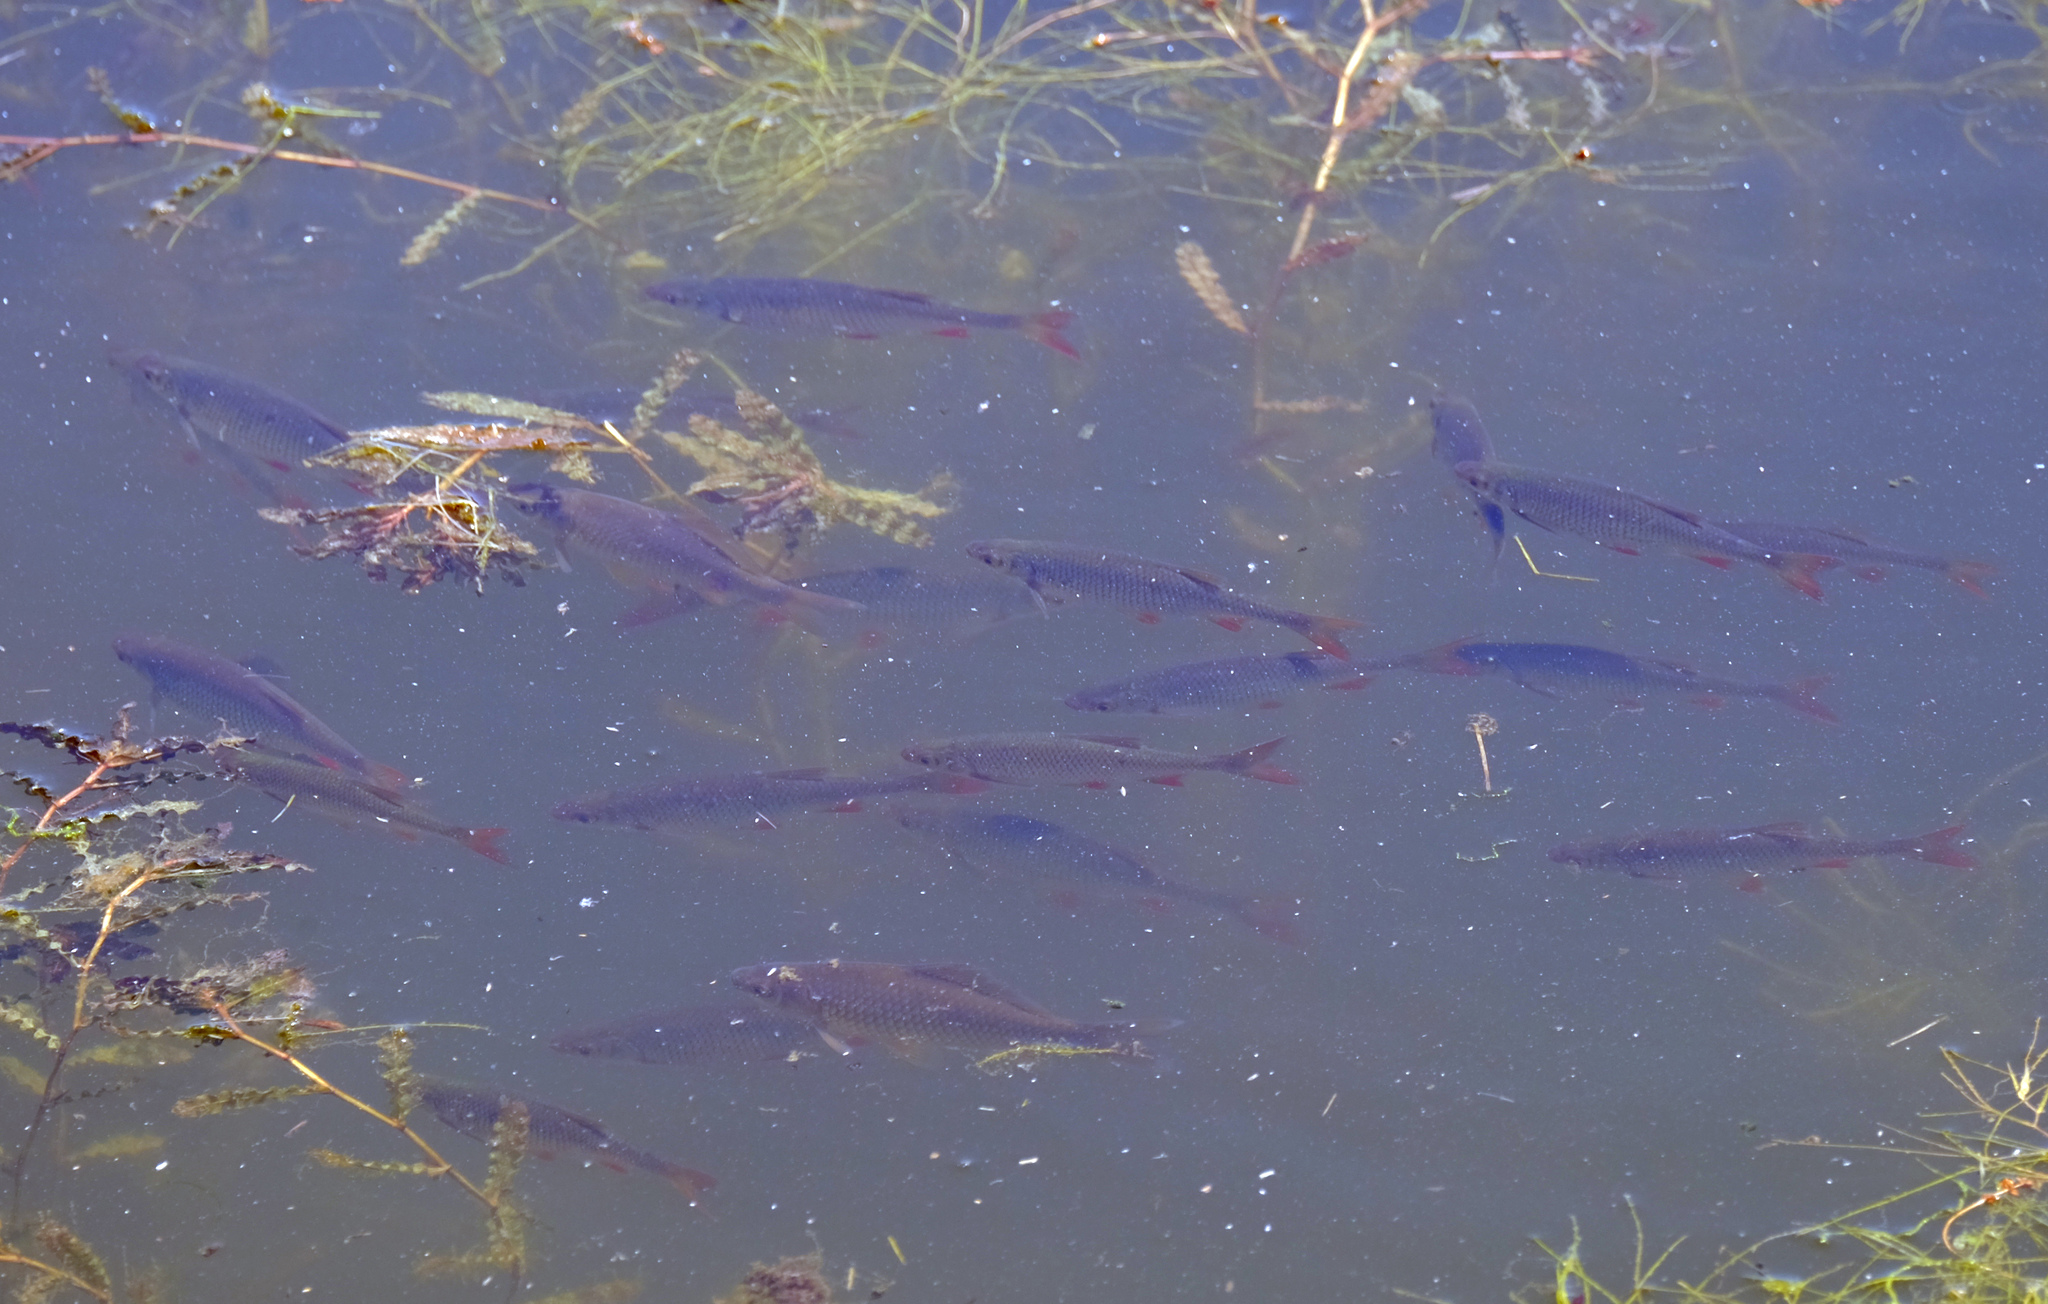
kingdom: Animalia
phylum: Chordata
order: Cypriniformes
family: Cyprinidae
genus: Scardinius
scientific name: Scardinius erythrophthalmus
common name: Rudd
